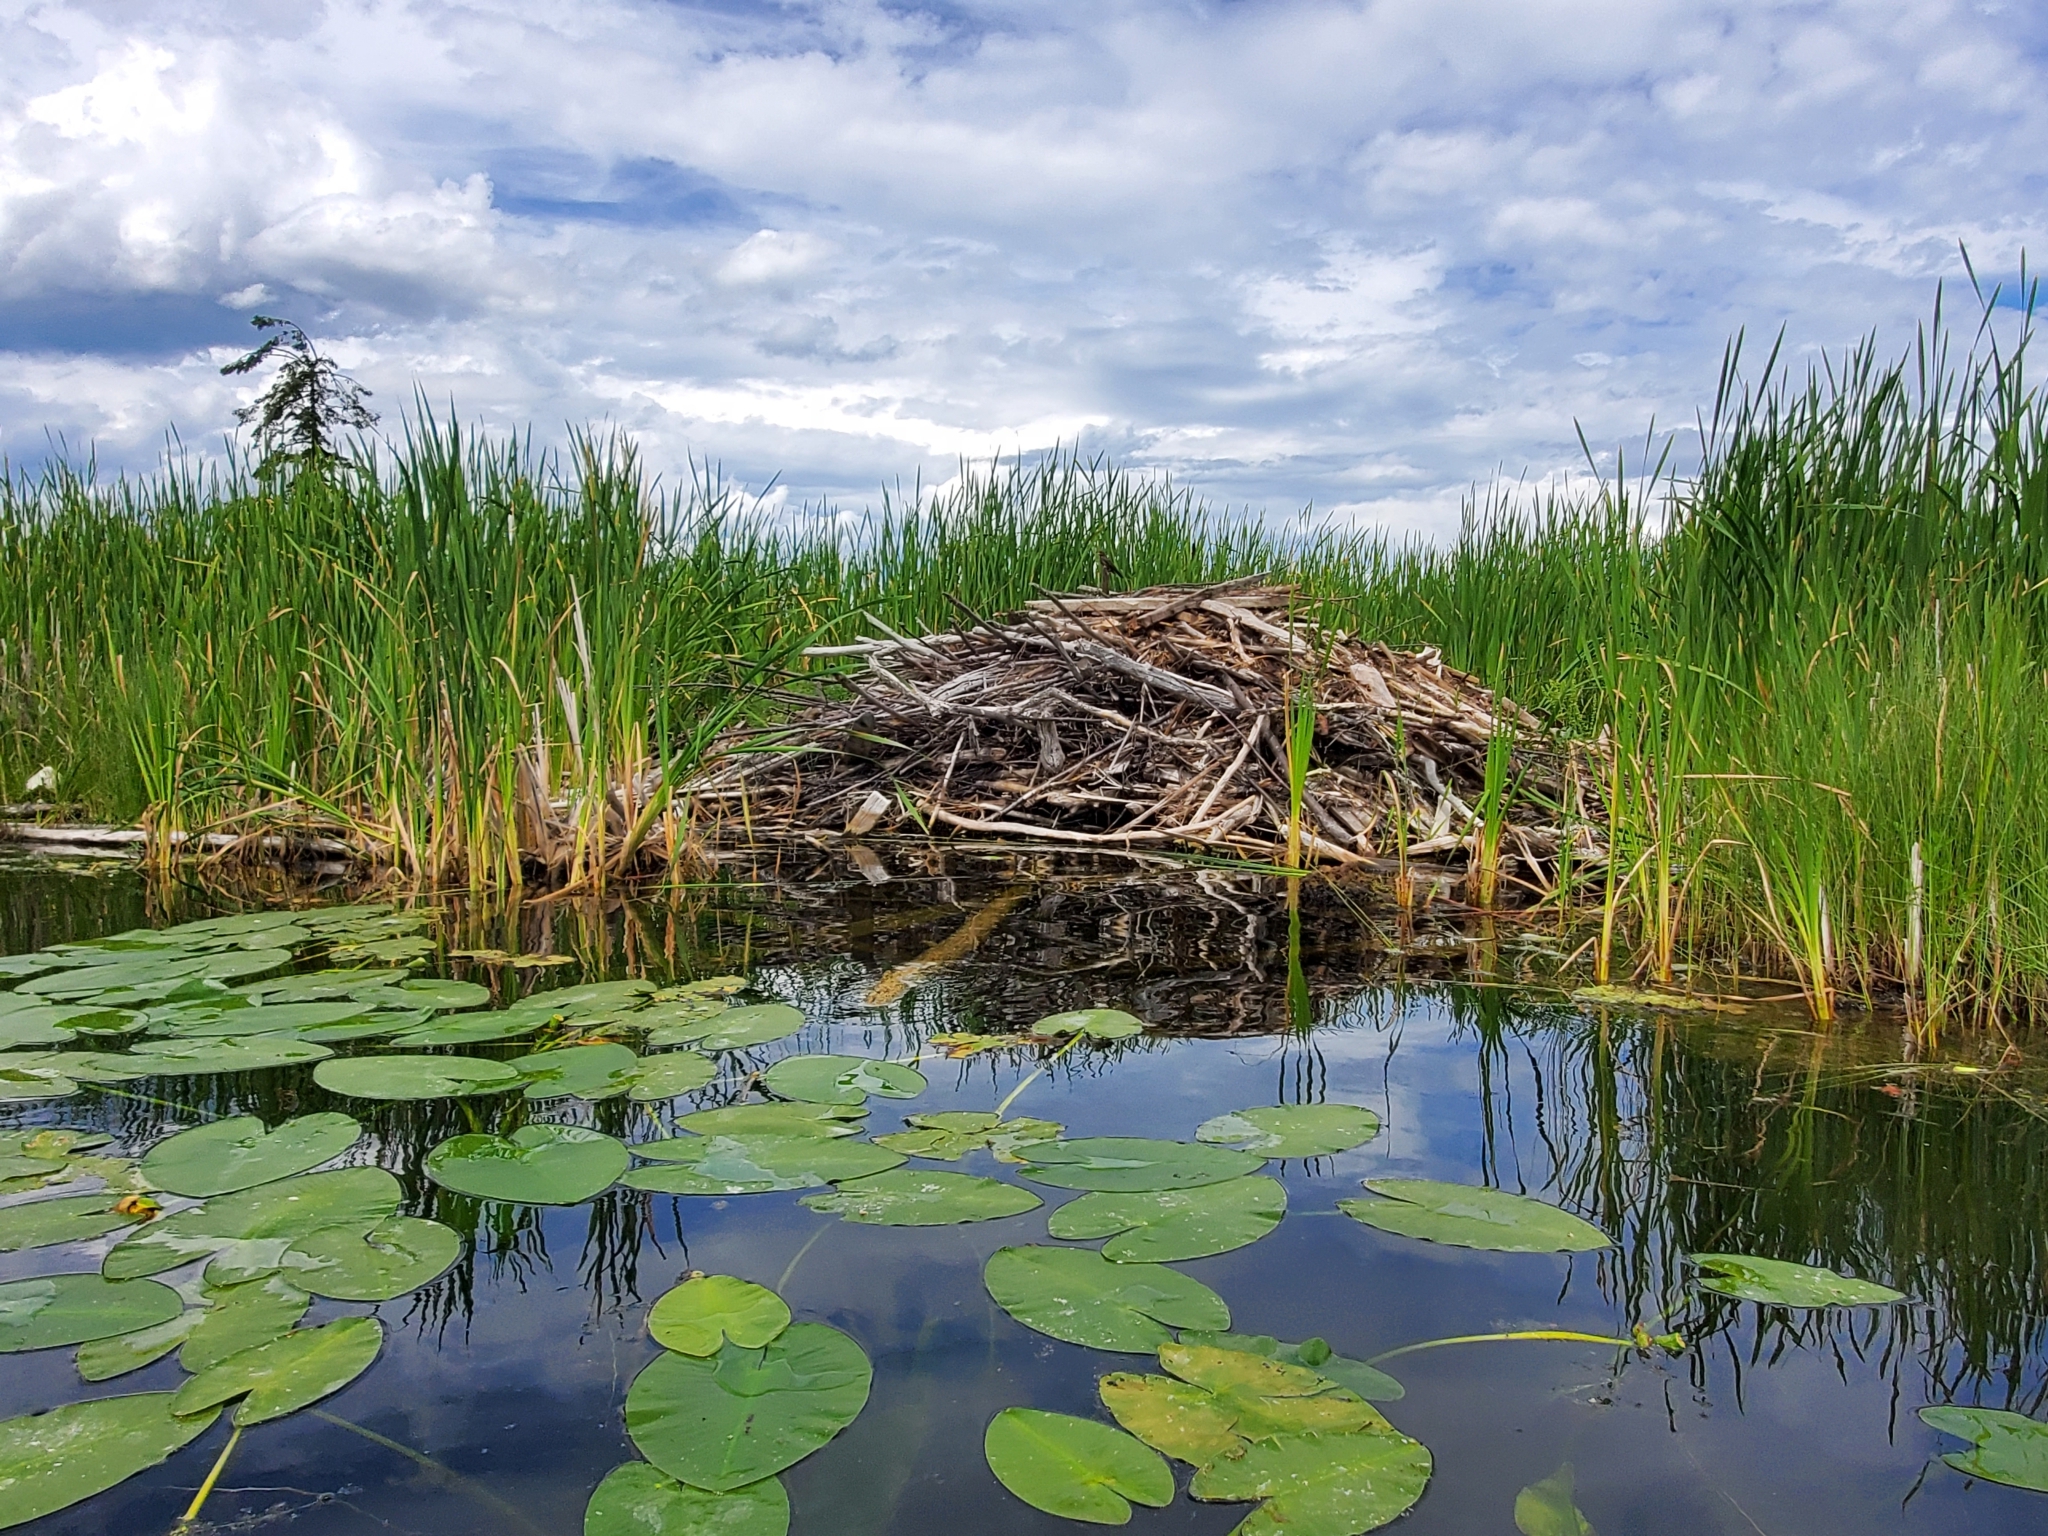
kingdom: Animalia
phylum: Chordata
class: Mammalia
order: Rodentia
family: Castoridae
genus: Castor
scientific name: Castor canadensis
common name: American beaver
